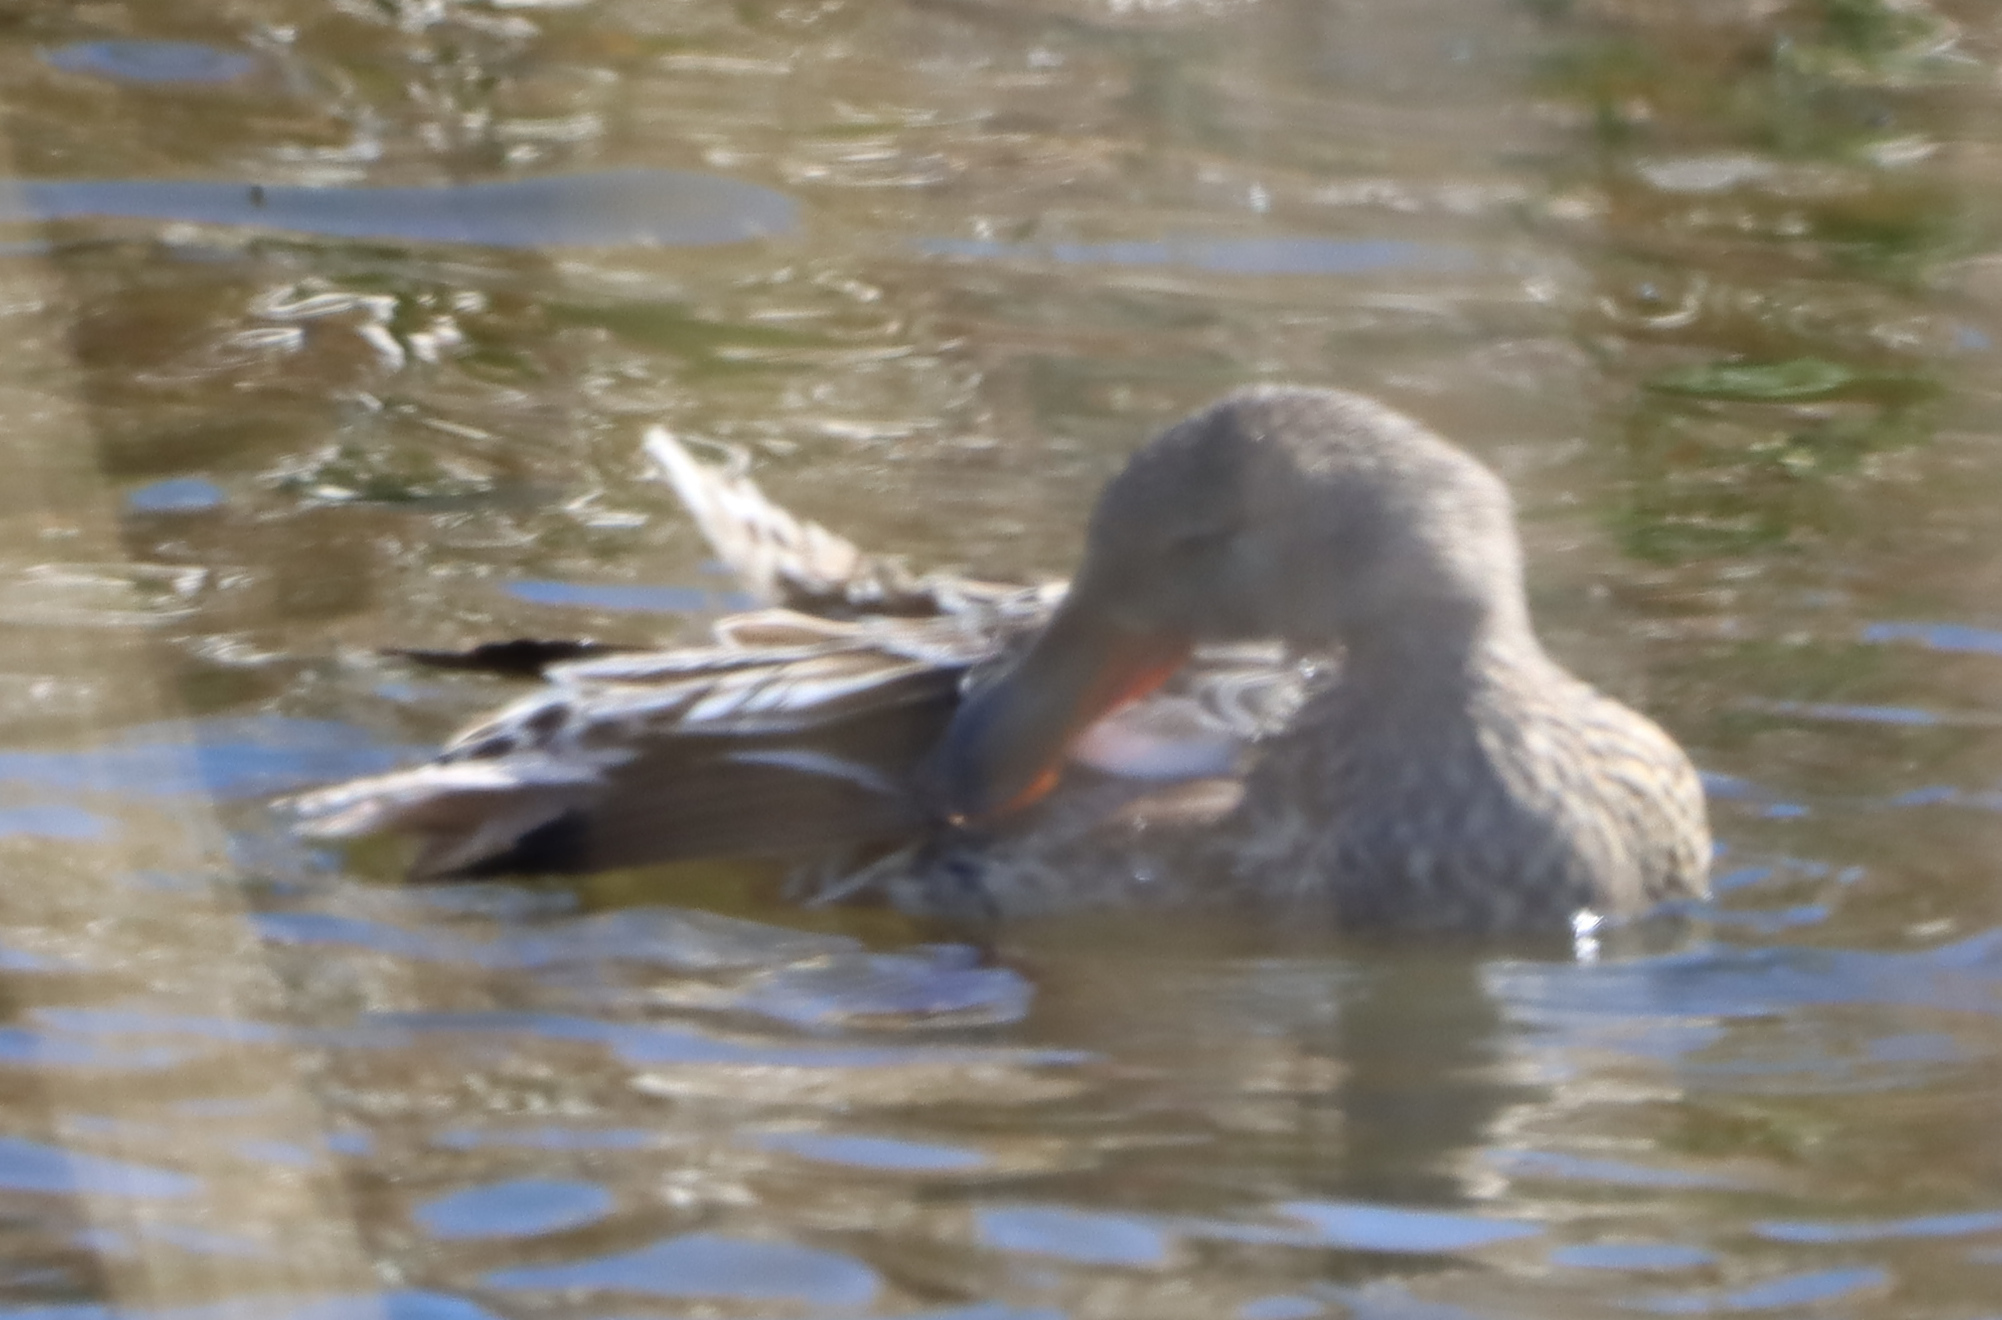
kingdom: Animalia
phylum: Chordata
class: Aves
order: Anseriformes
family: Anatidae
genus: Spatula
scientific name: Spatula clypeata
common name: Northern shoveler
